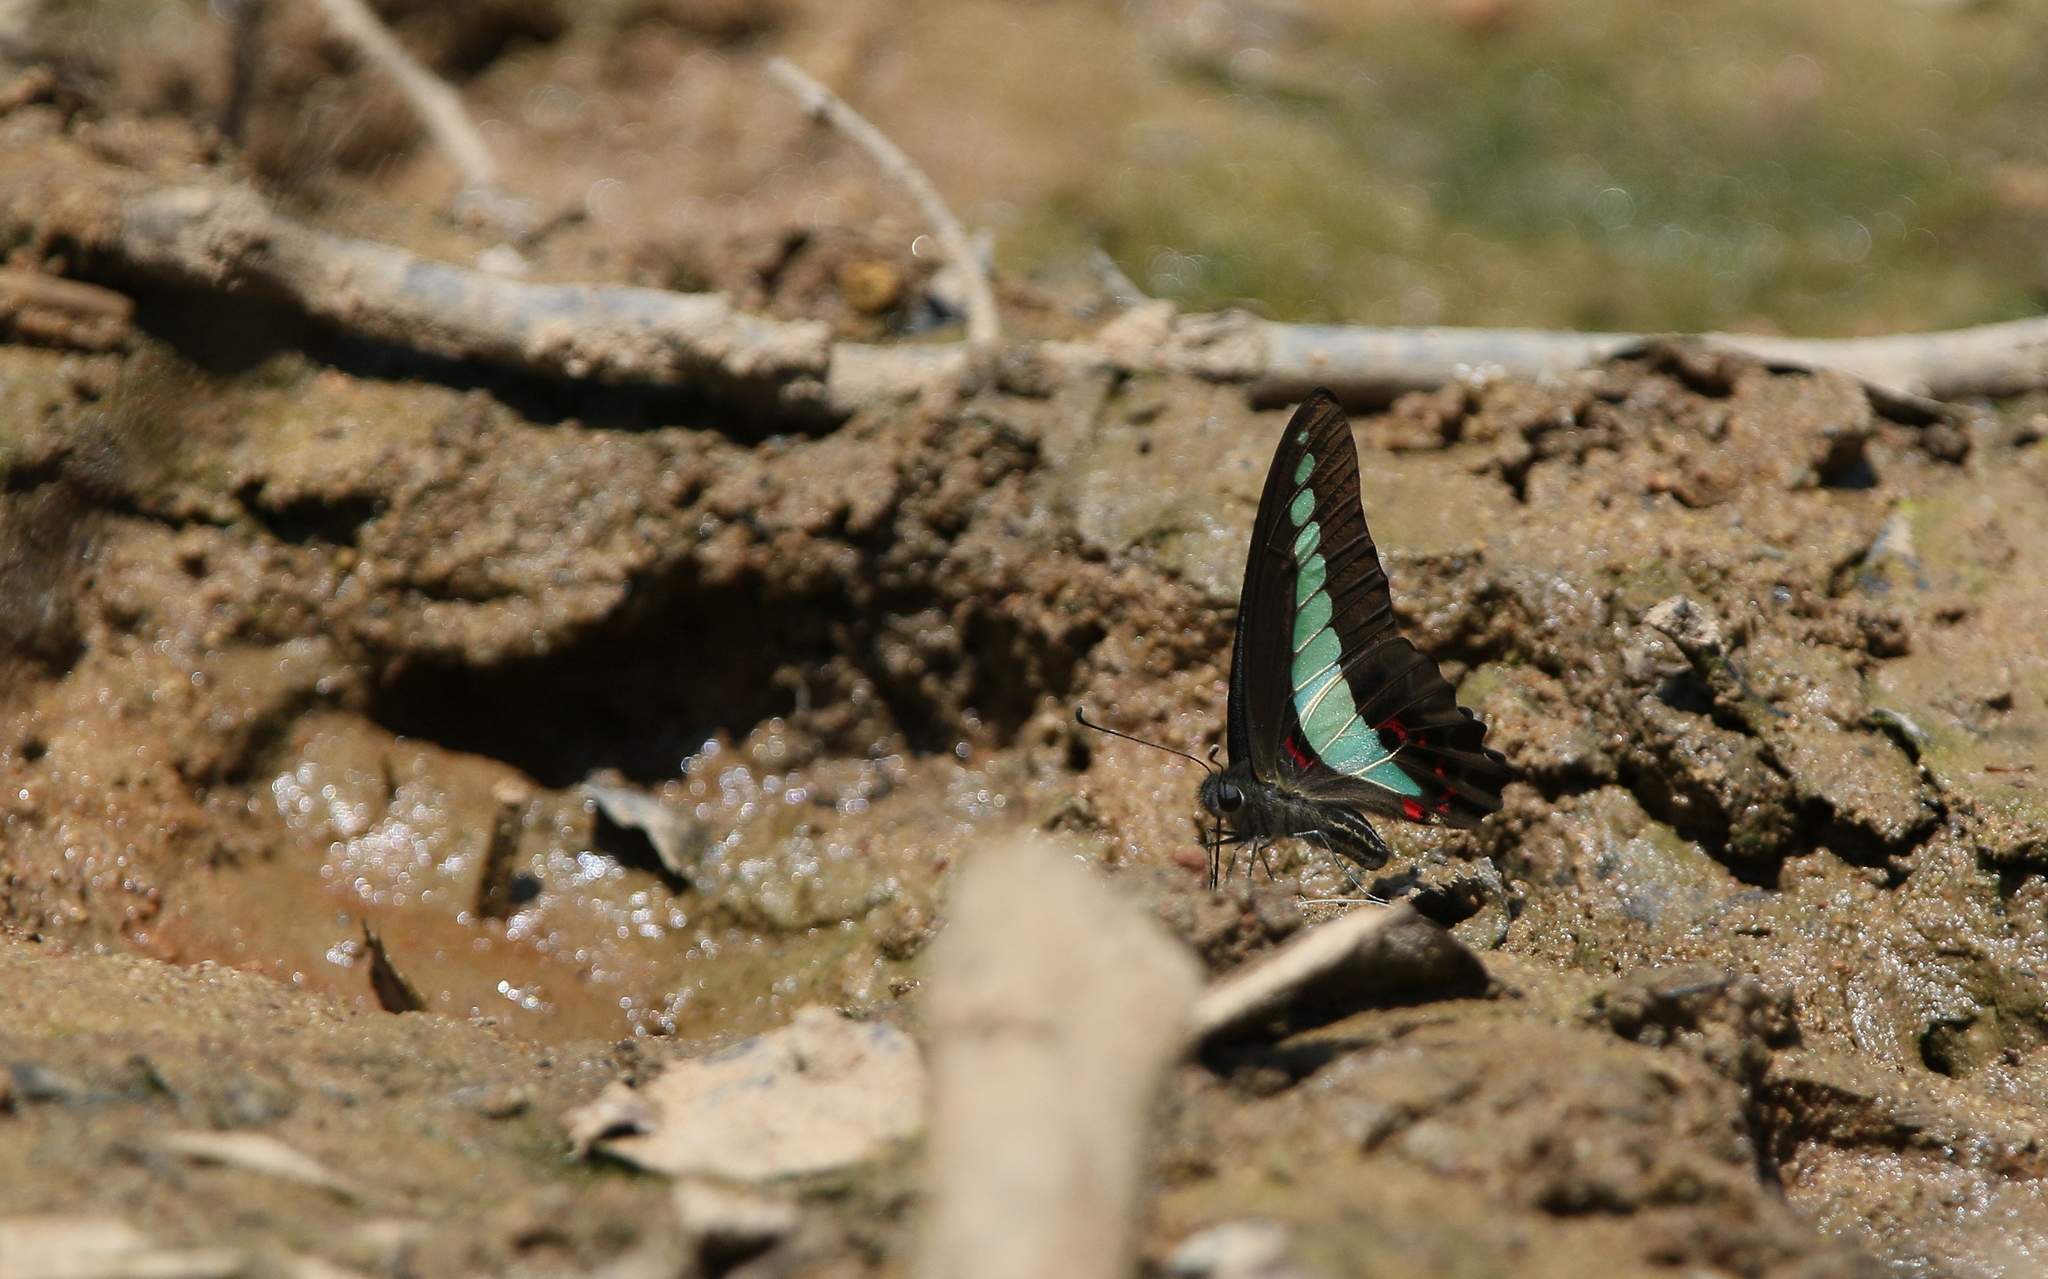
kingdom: Fungi
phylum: Ascomycota
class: Sordariomycetes
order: Microascales
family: Microascaceae
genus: Graphium
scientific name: Graphium sarpedon
